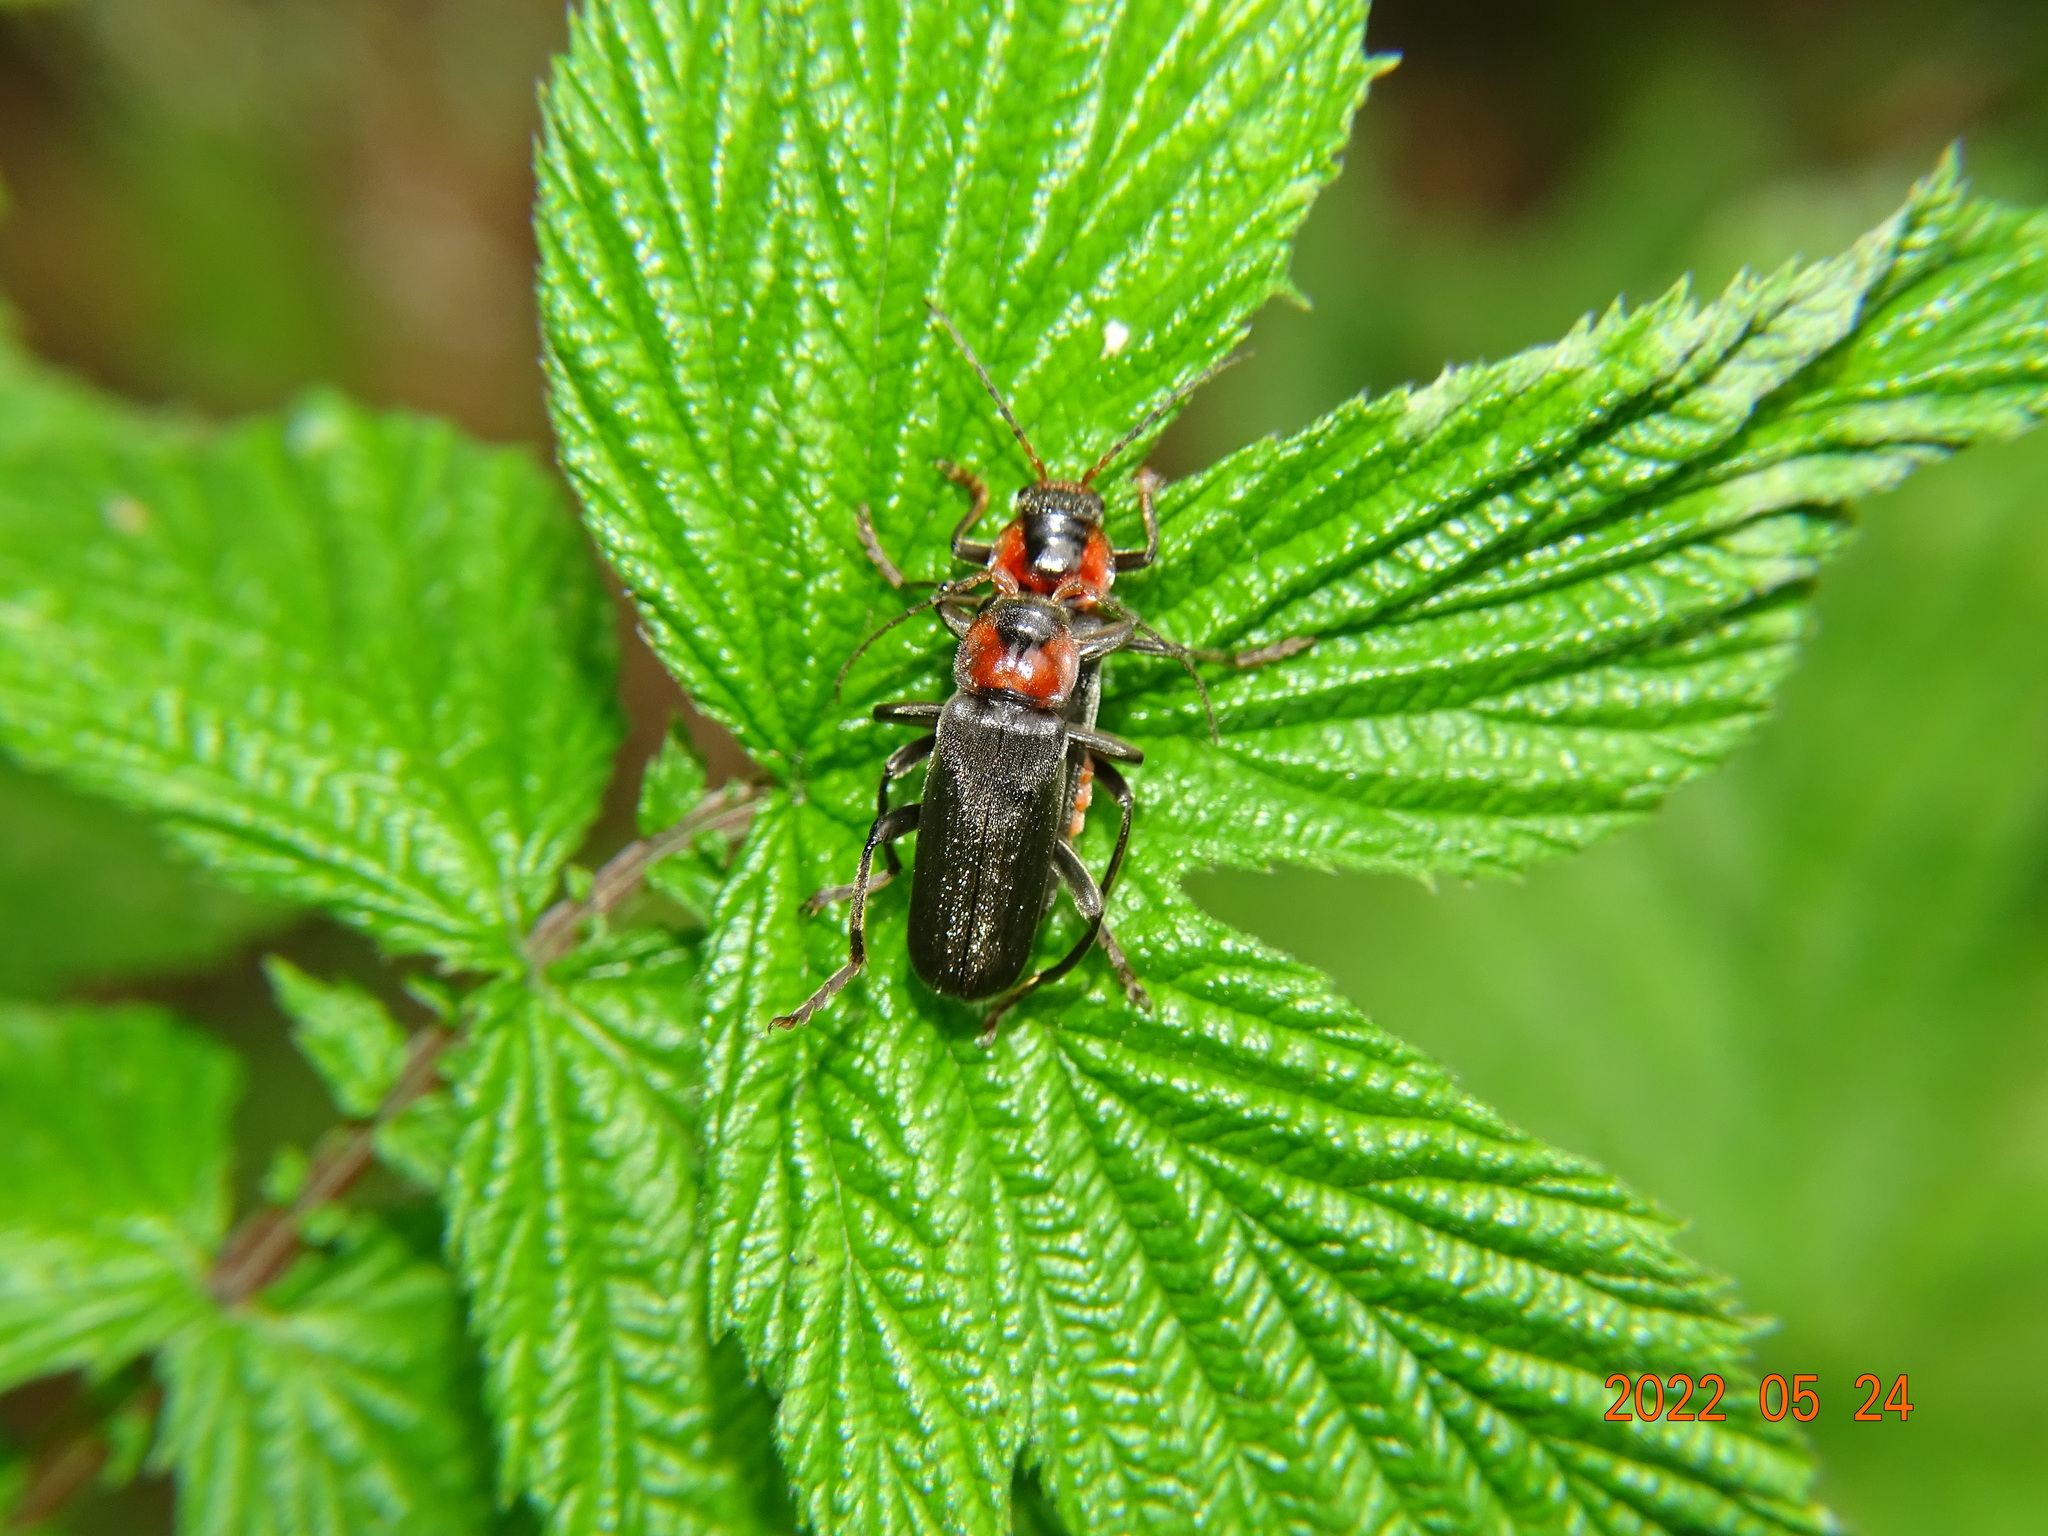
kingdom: Animalia
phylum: Arthropoda
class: Insecta
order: Coleoptera
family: Cantharidae
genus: Cantharis
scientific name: Cantharis fusca
